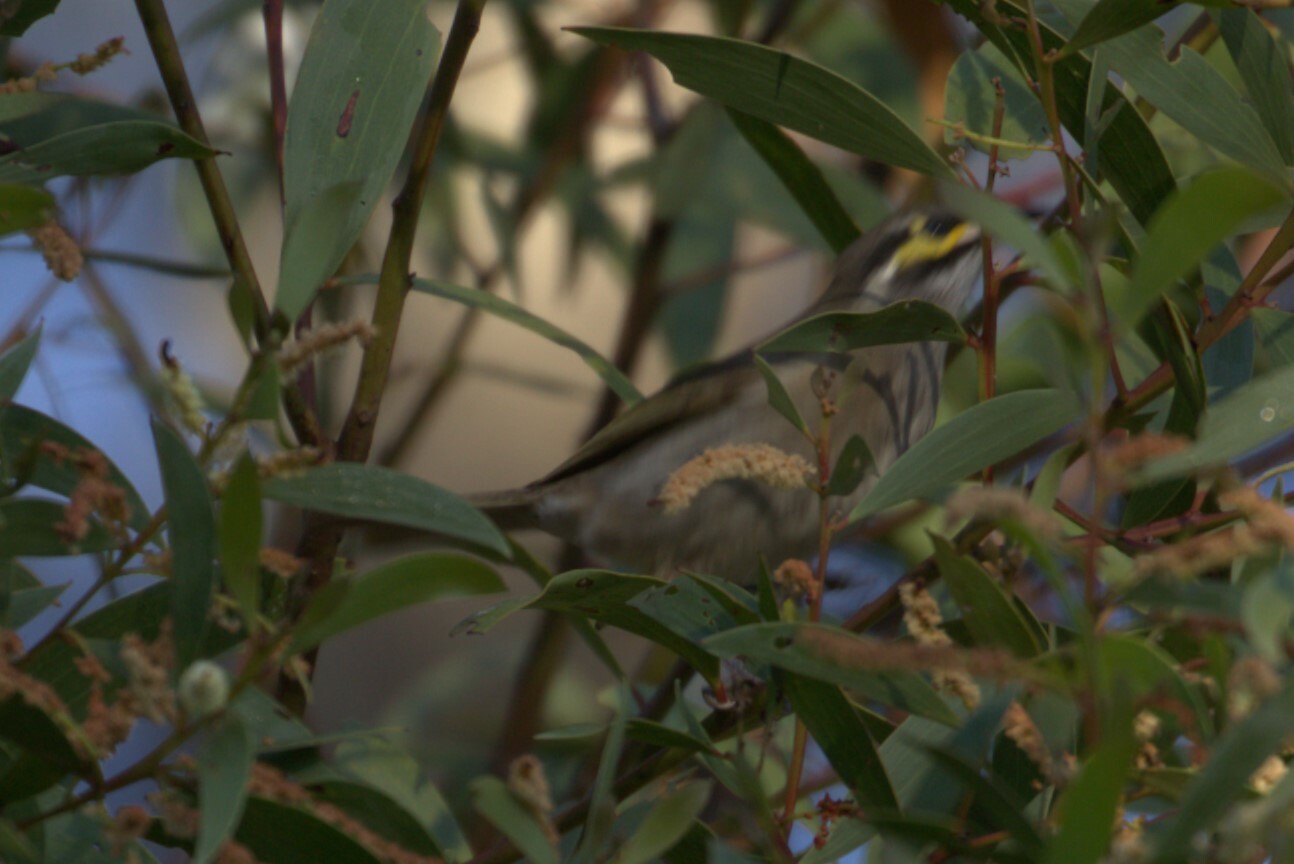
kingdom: Animalia
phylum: Chordata
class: Aves
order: Passeriformes
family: Meliphagidae
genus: Caligavis
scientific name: Caligavis chrysops
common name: Yellow-faced honeyeater
